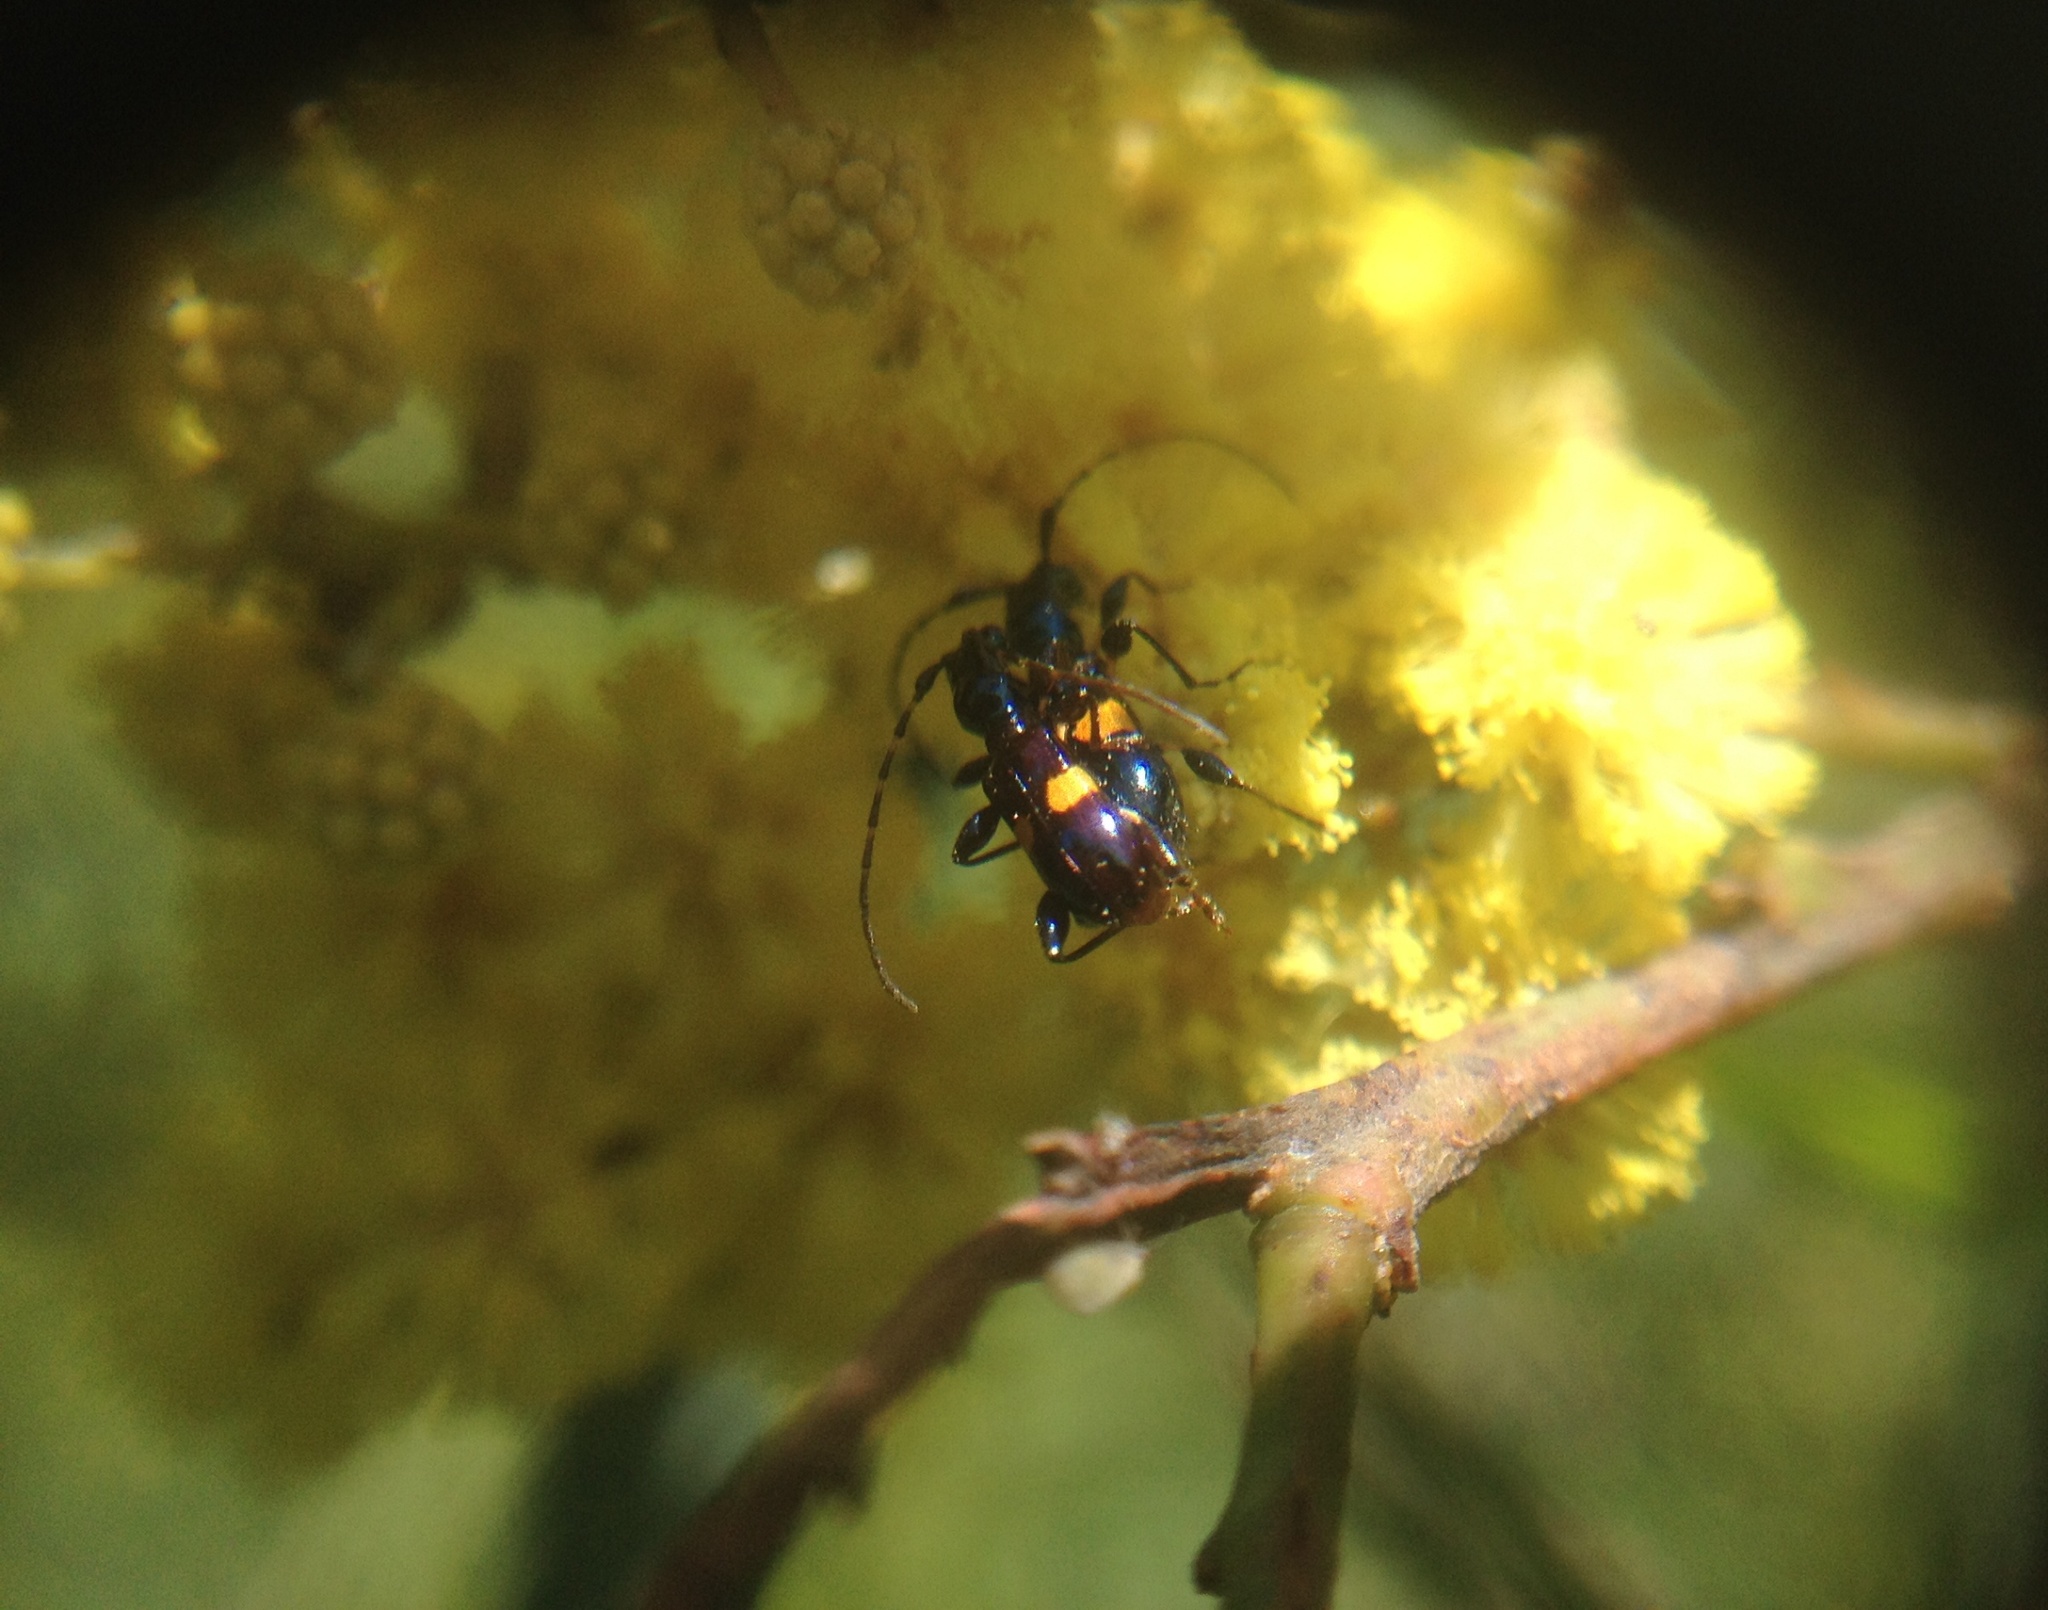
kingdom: Animalia
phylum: Arthropoda
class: Insecta
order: Coleoptera
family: Cerambycidae
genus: Zorion
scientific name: Zorion guttigerum
